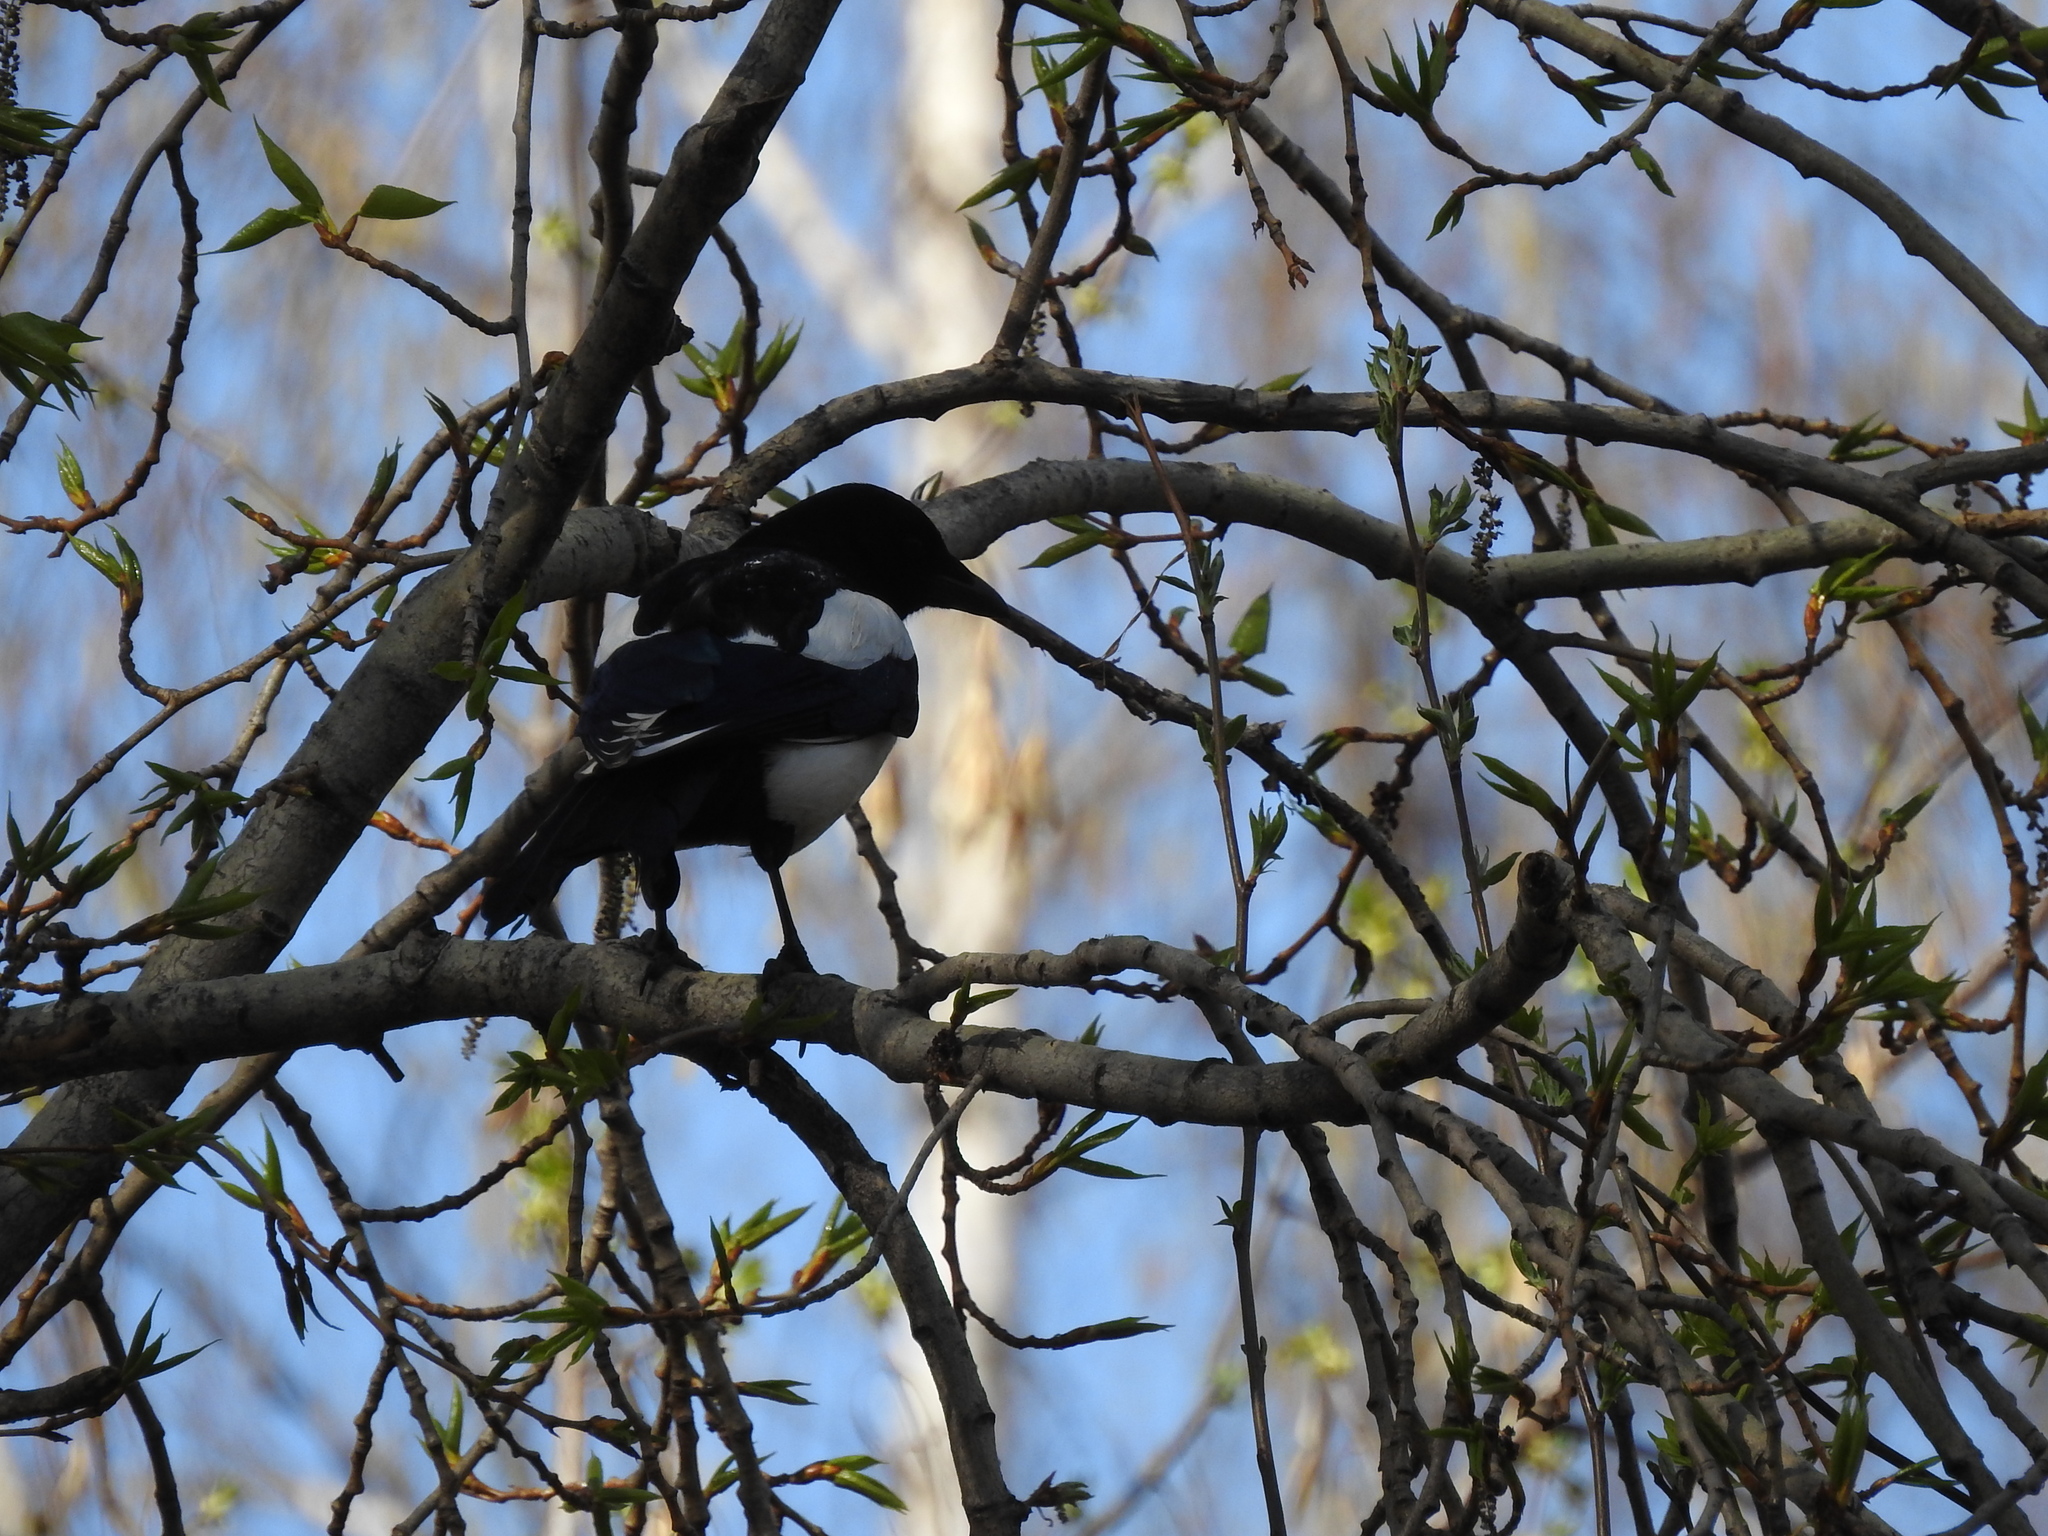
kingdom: Animalia
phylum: Chordata
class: Aves
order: Passeriformes
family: Corvidae
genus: Pica
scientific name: Pica pica
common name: Eurasian magpie
